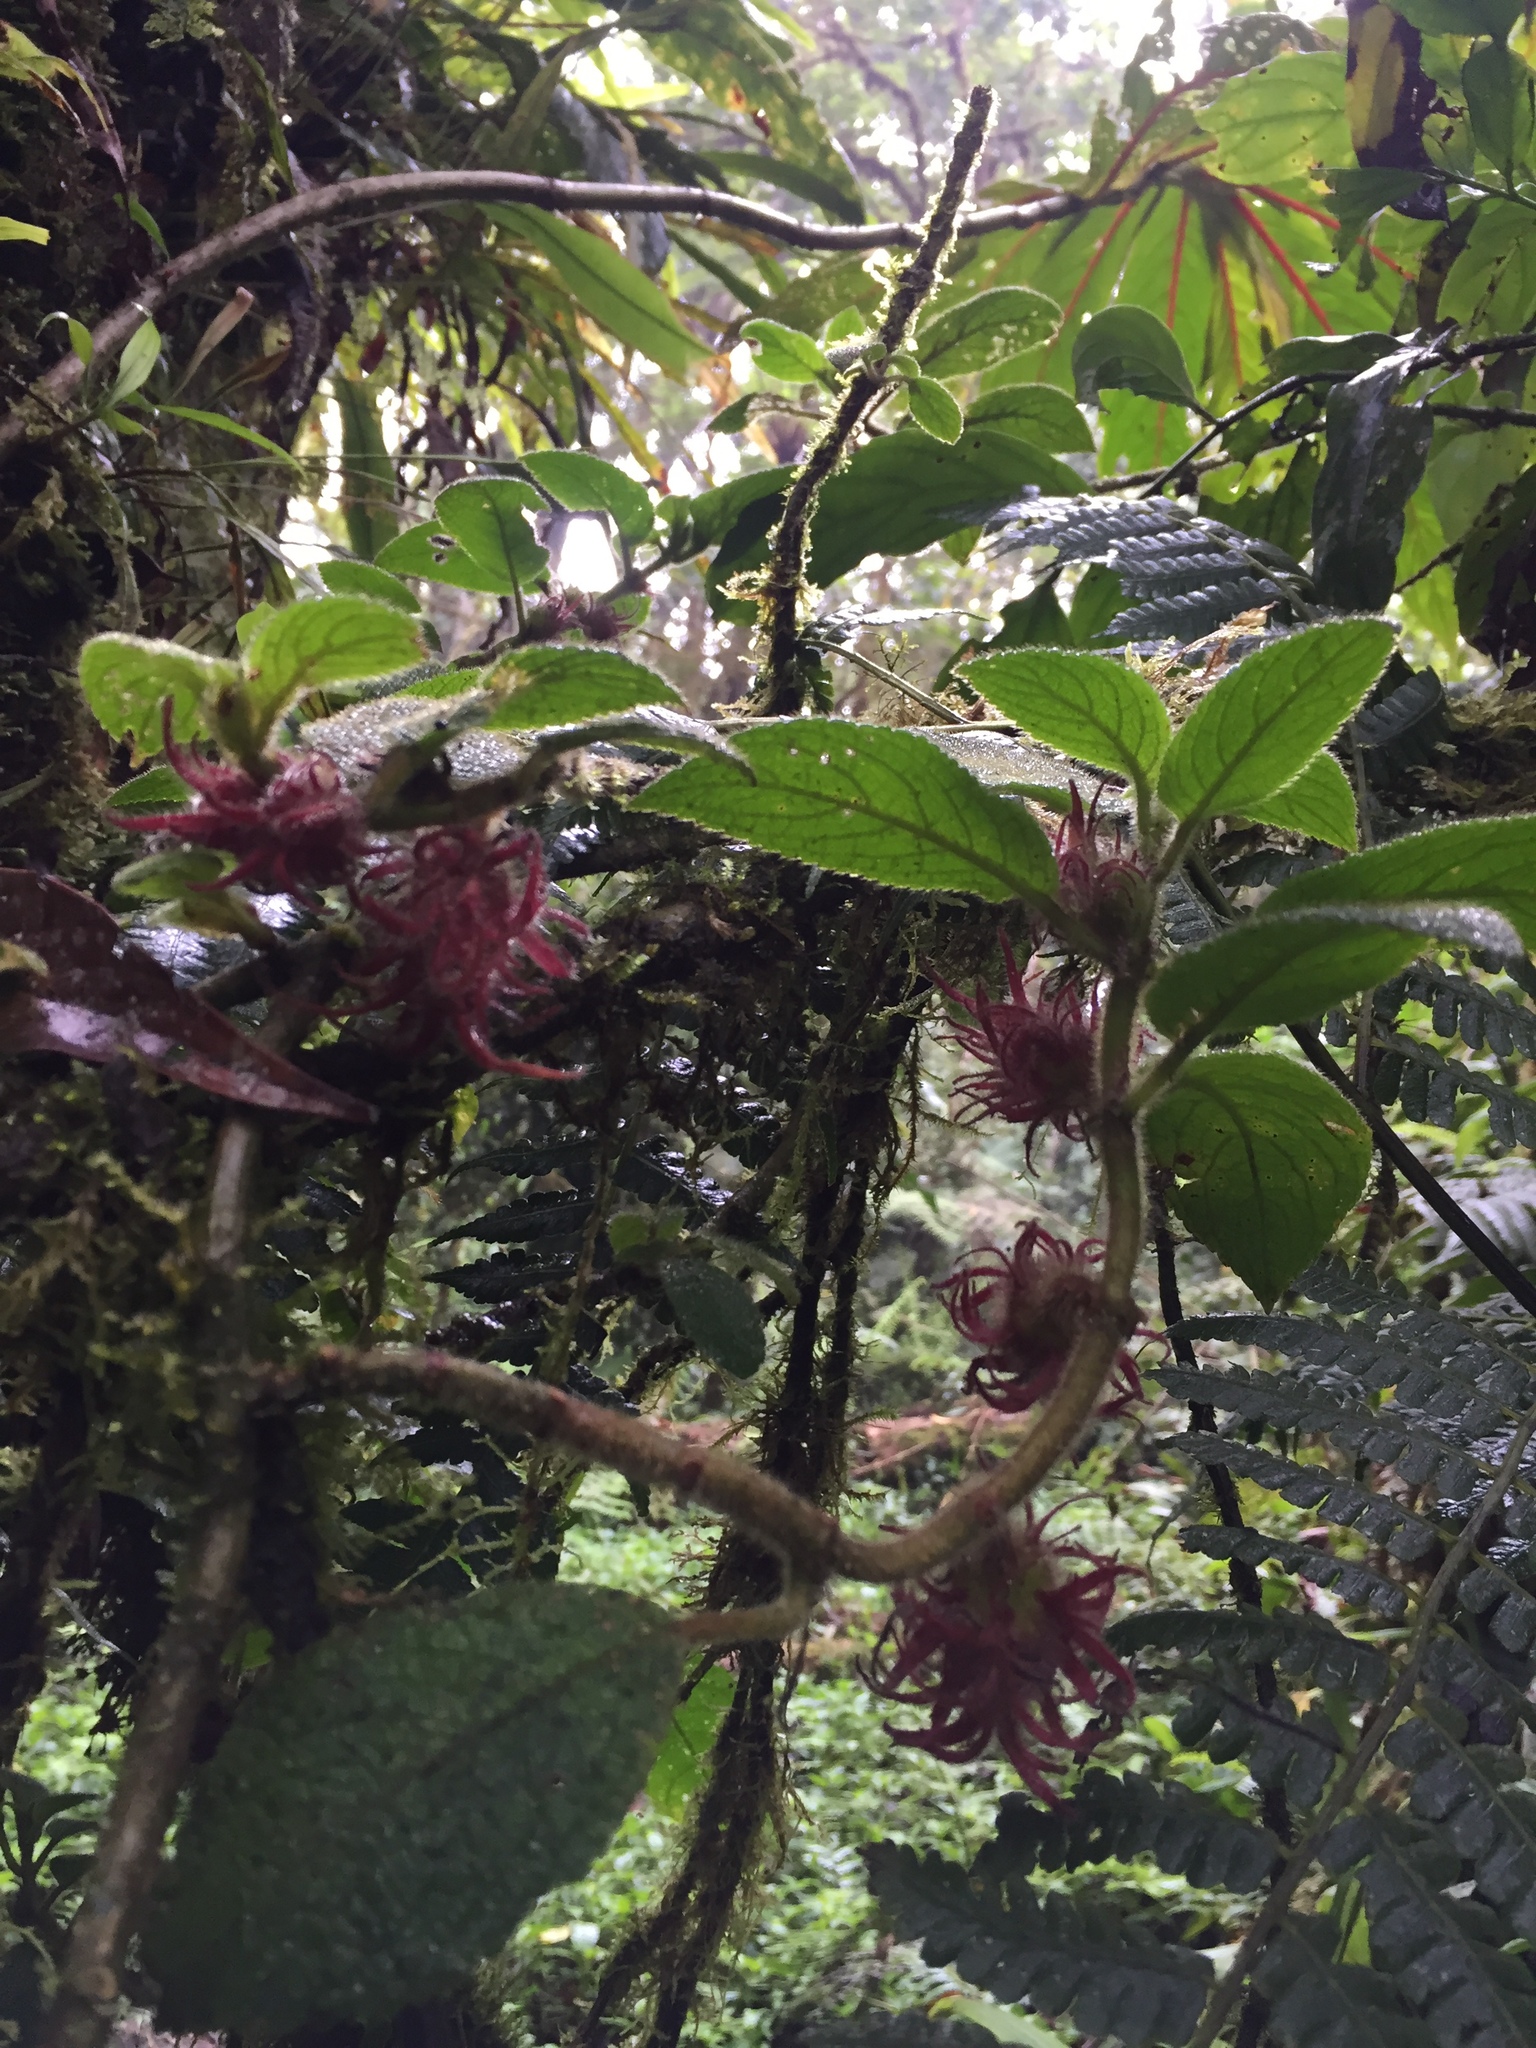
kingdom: Plantae
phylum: Tracheophyta
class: Magnoliopsida
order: Lamiales
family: Gesneriaceae
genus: Alloplectus
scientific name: Alloplectus weirii
